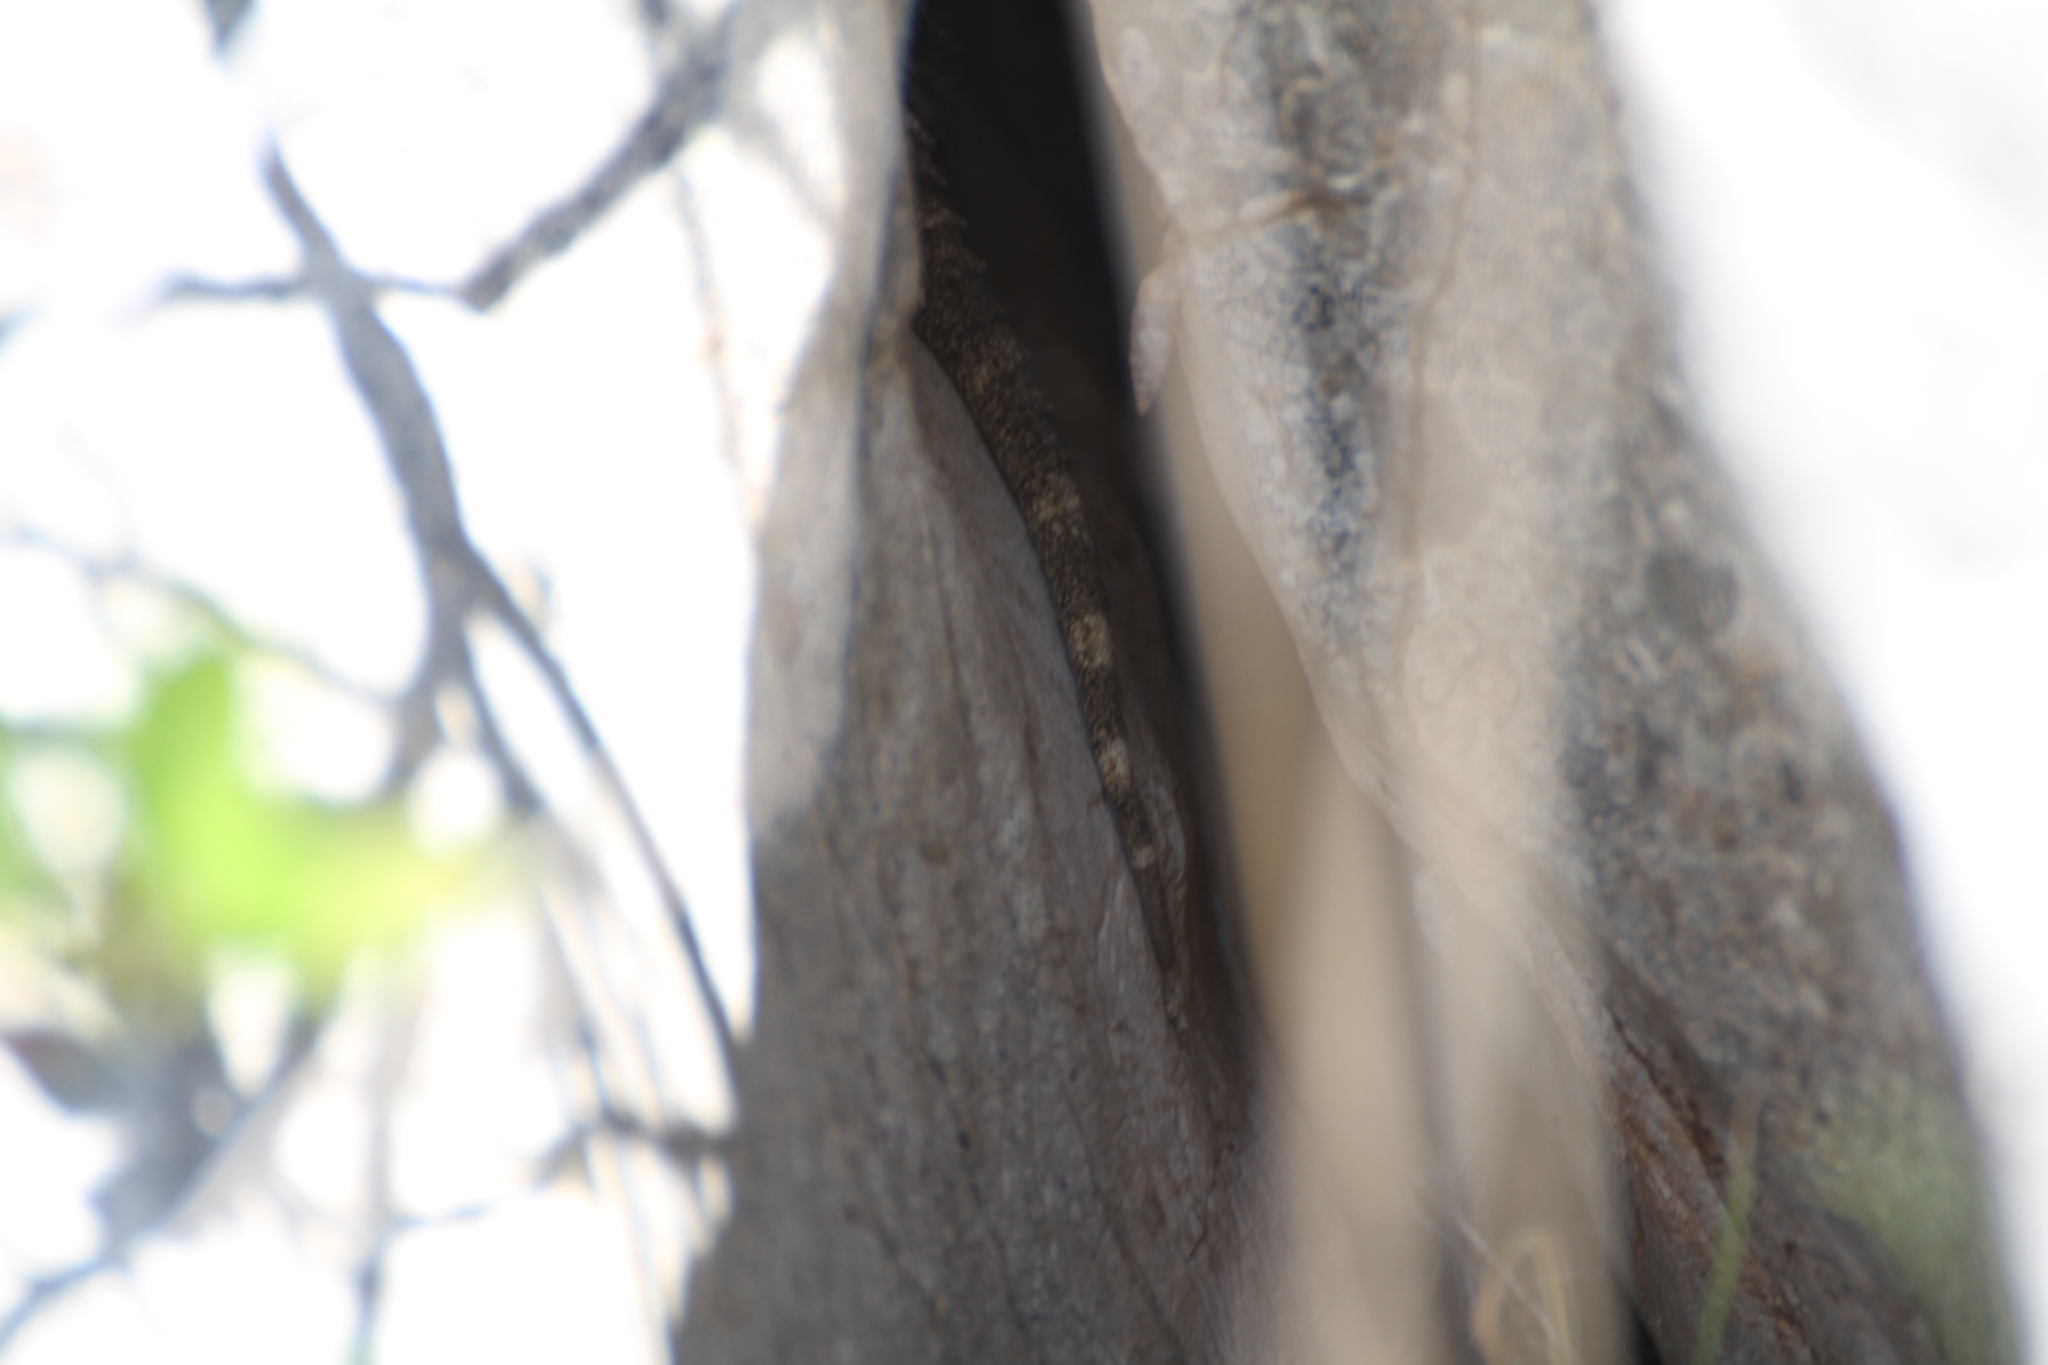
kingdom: Animalia
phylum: Chordata
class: Squamata
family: Phyllodactylidae
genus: Tarentola
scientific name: Tarentola mauritanica
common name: Moorish gecko
